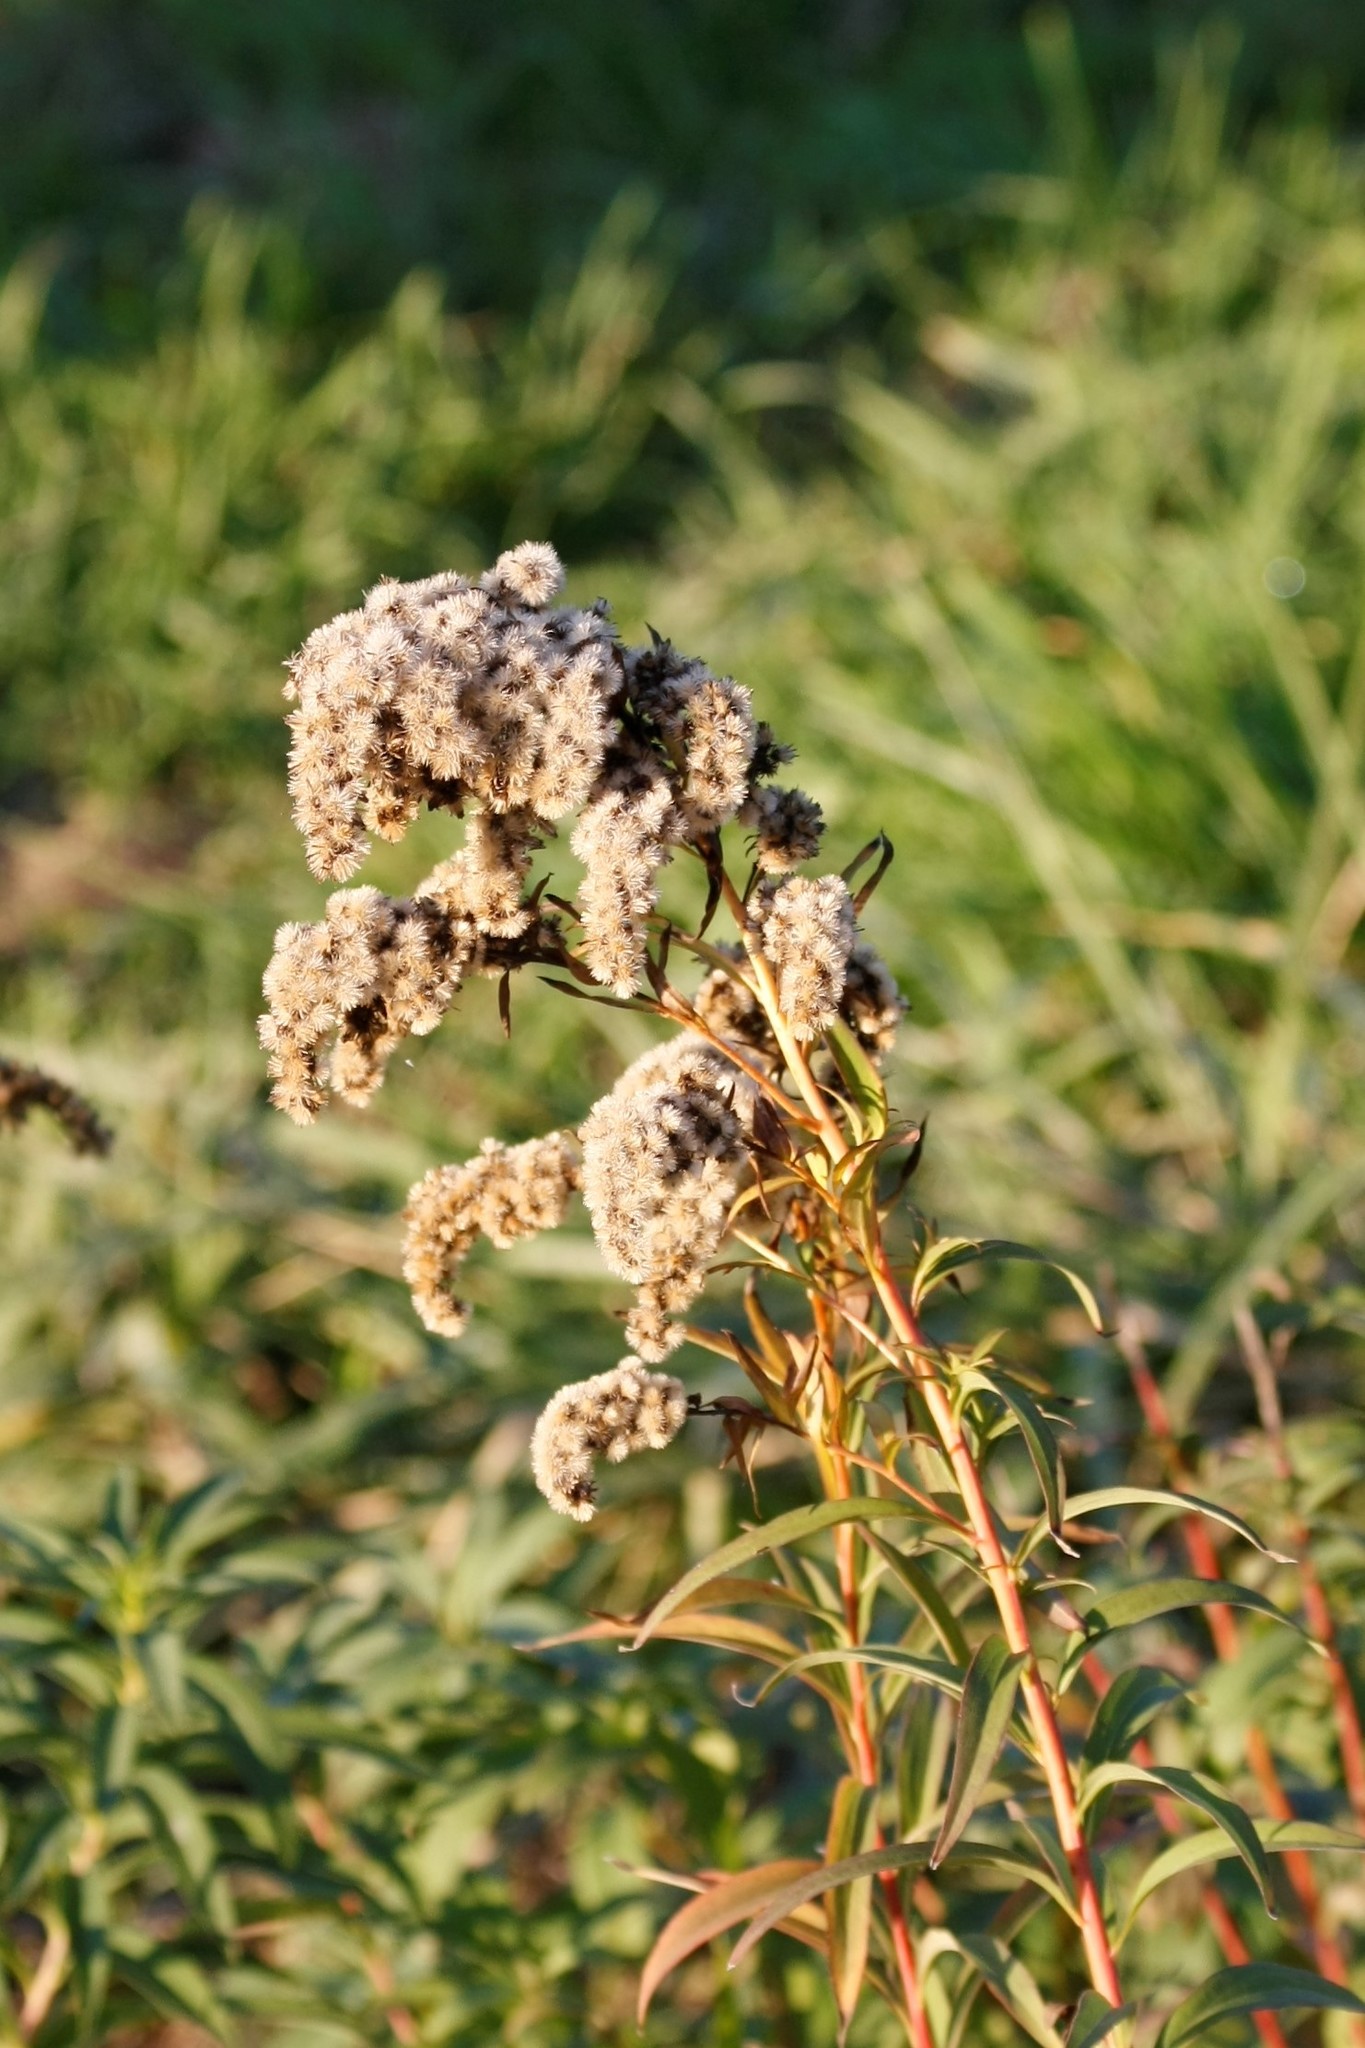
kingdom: Plantae
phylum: Tracheophyta
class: Magnoliopsida
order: Asterales
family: Asteraceae
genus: Solidago
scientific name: Solidago gigantea
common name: Giant goldenrod
